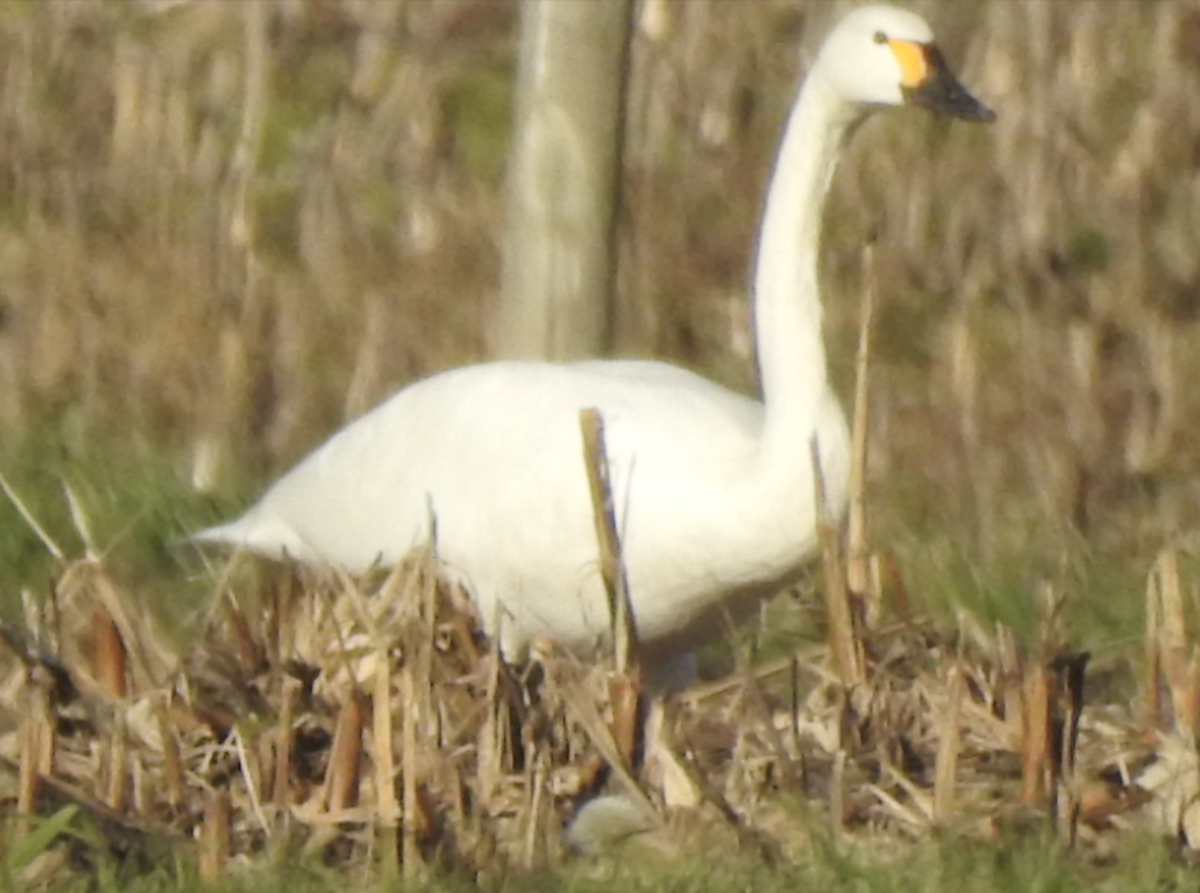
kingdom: Animalia
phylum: Chordata
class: Aves
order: Anseriformes
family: Anatidae
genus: Cygnus
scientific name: Cygnus columbianus
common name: Tundra swan
